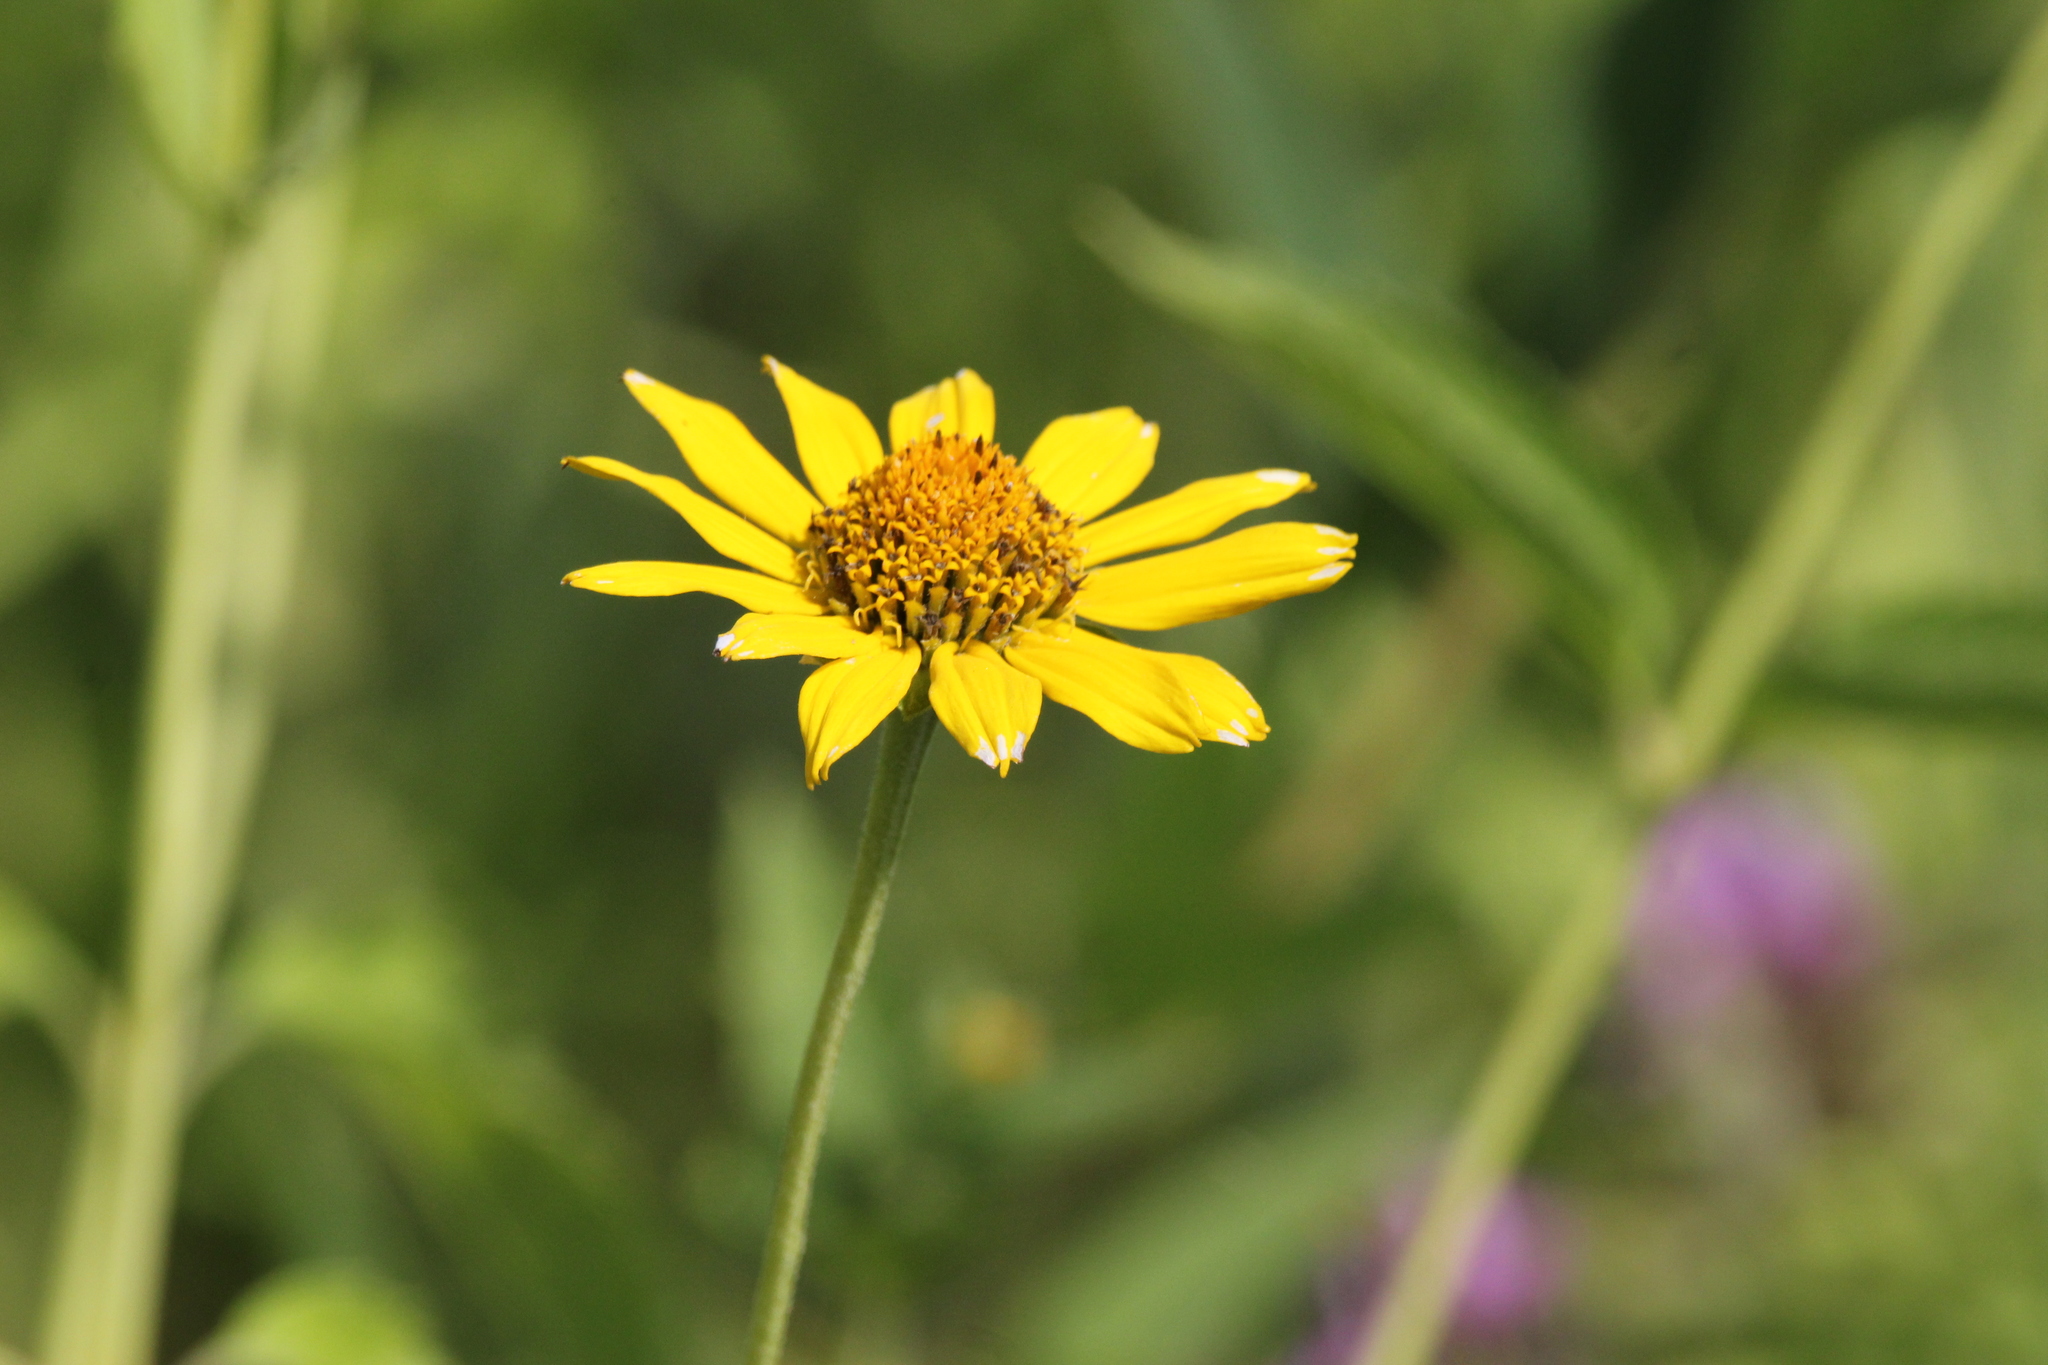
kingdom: Plantae
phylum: Tracheophyta
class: Magnoliopsida
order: Asterales
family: Asteraceae
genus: Heliopsis
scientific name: Heliopsis helianthoides
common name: False sunflower
